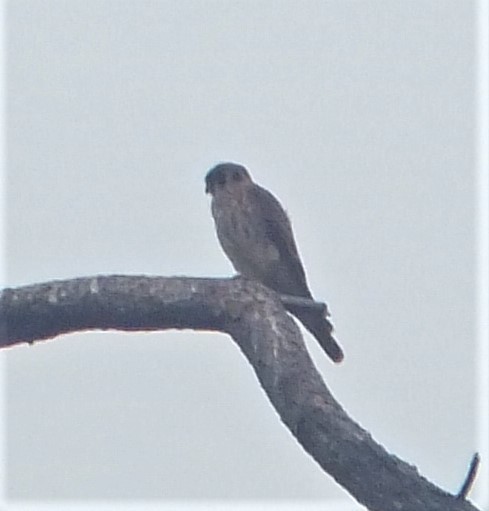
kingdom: Animalia
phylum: Chordata
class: Aves
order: Falconiformes
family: Falconidae
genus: Falco
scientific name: Falco sparverius
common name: American kestrel
